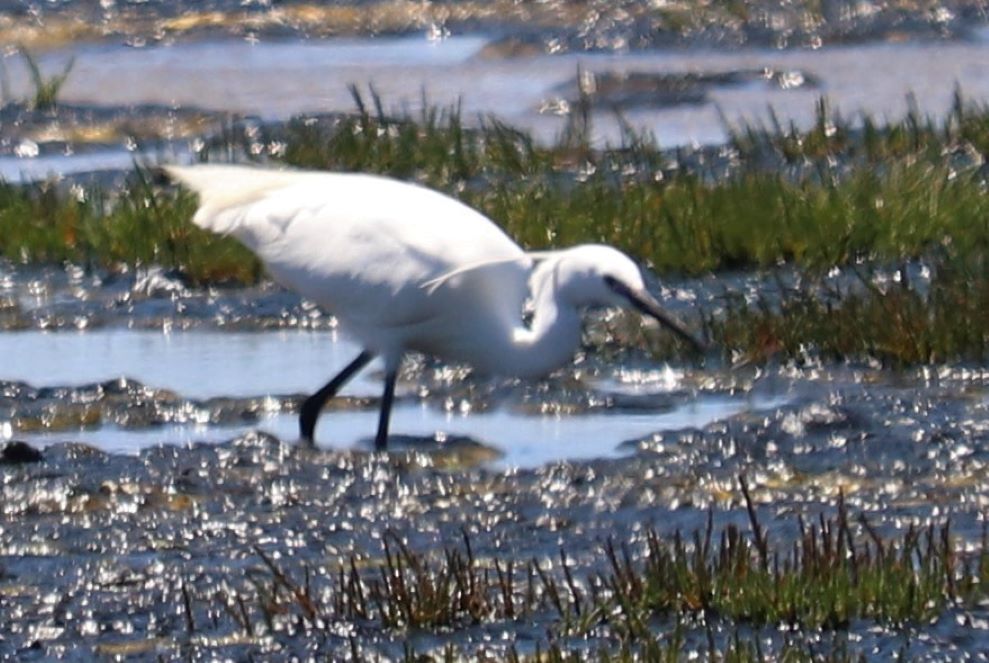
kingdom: Animalia
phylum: Chordata
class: Aves
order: Pelecaniformes
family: Ardeidae
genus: Egretta
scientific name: Egretta garzetta
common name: Little egret
